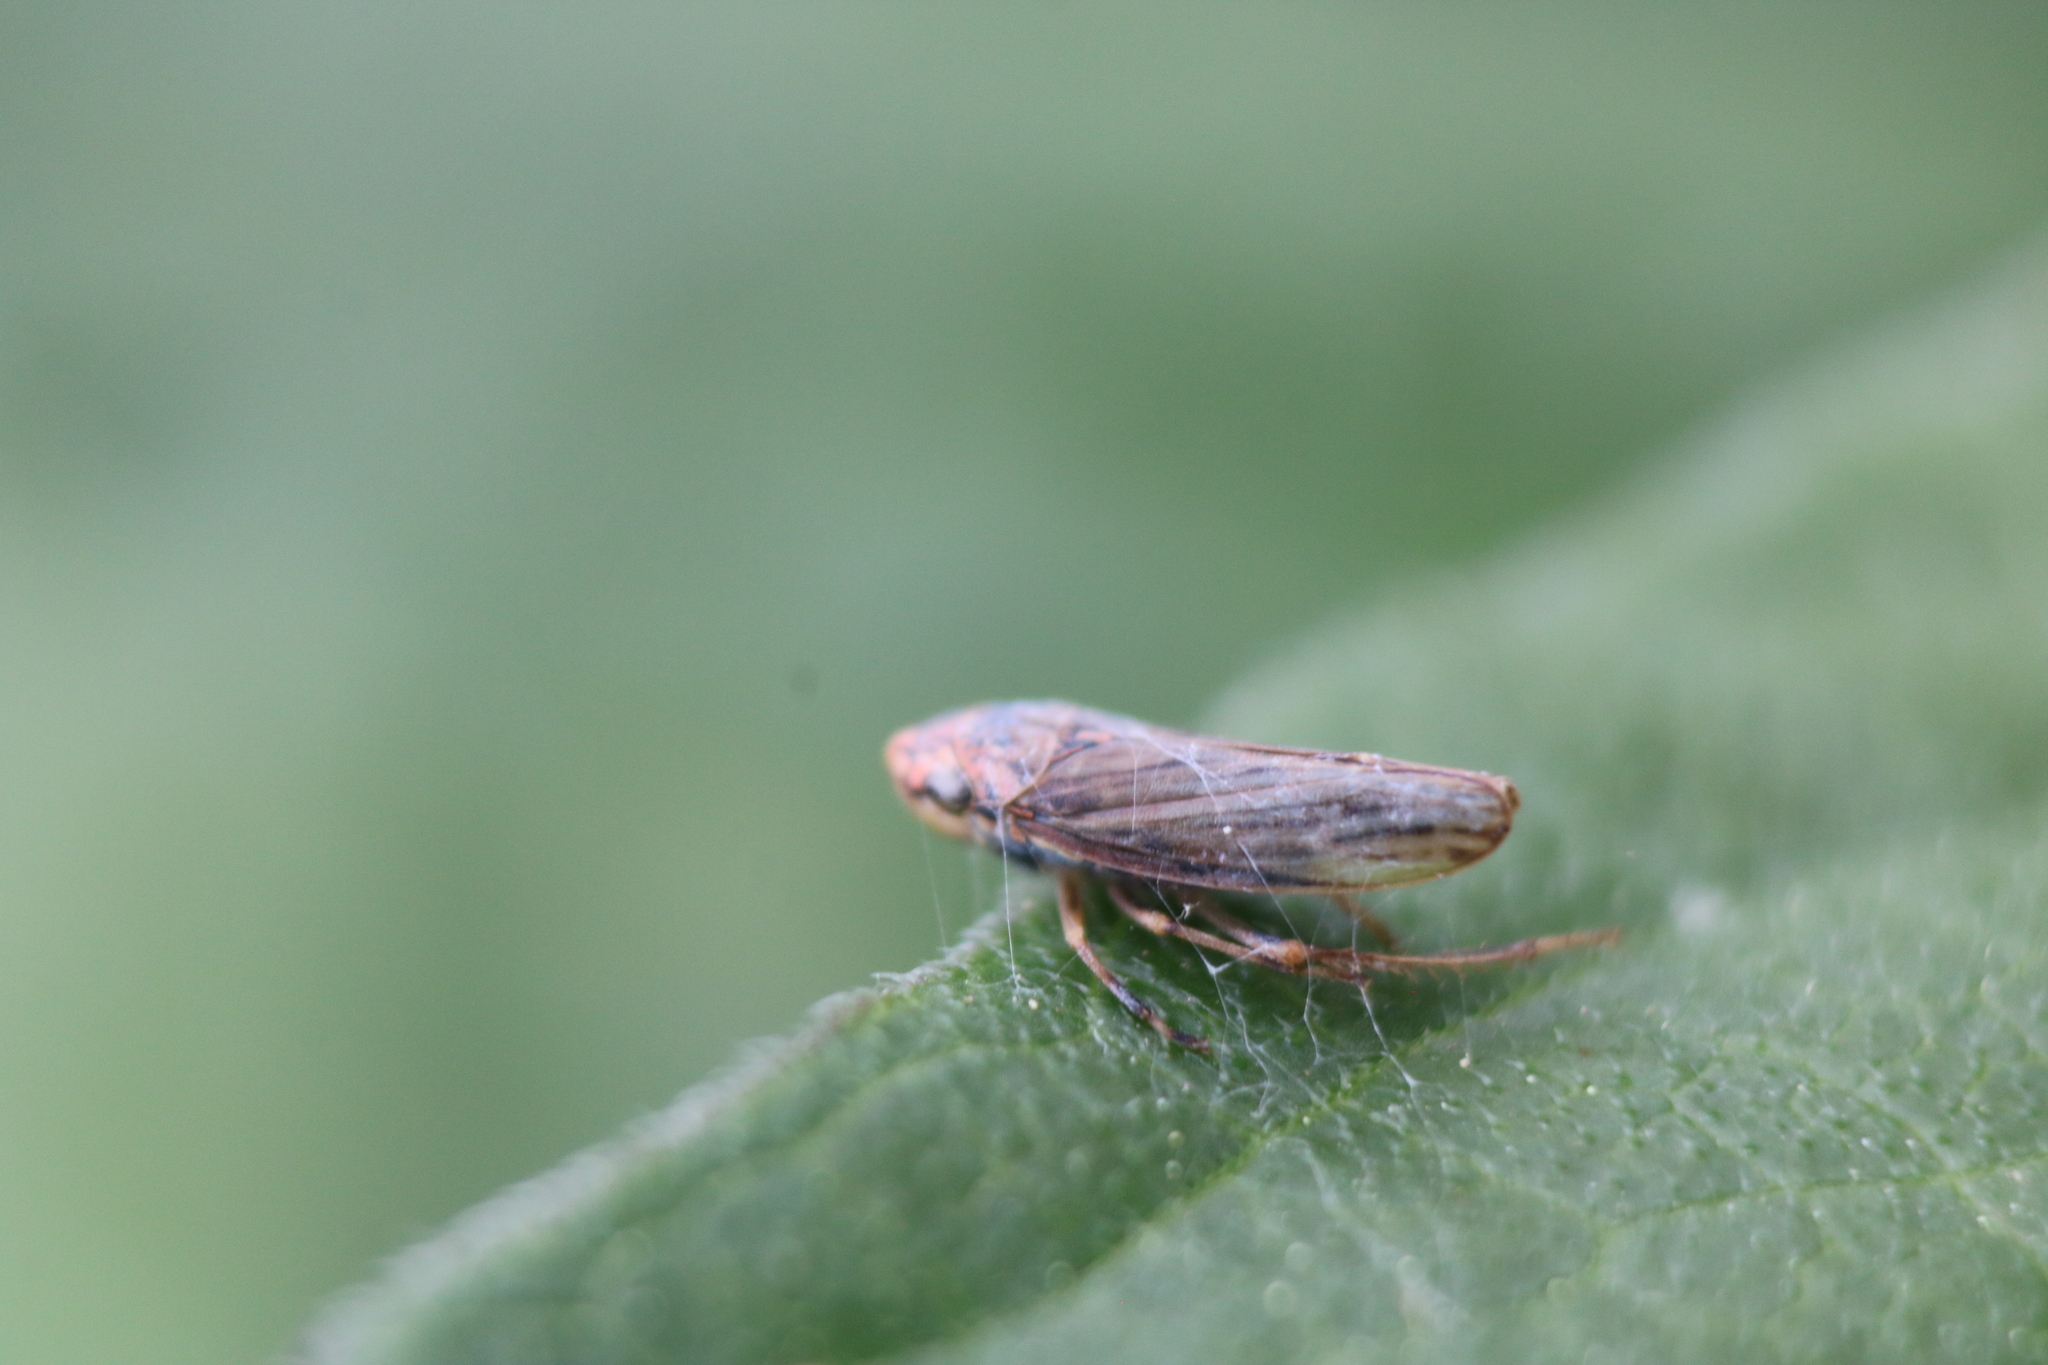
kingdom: Animalia
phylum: Arthropoda
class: Insecta
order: Hemiptera
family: Cicadellidae
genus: Neokolla
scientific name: Neokolla hieroglyphica
